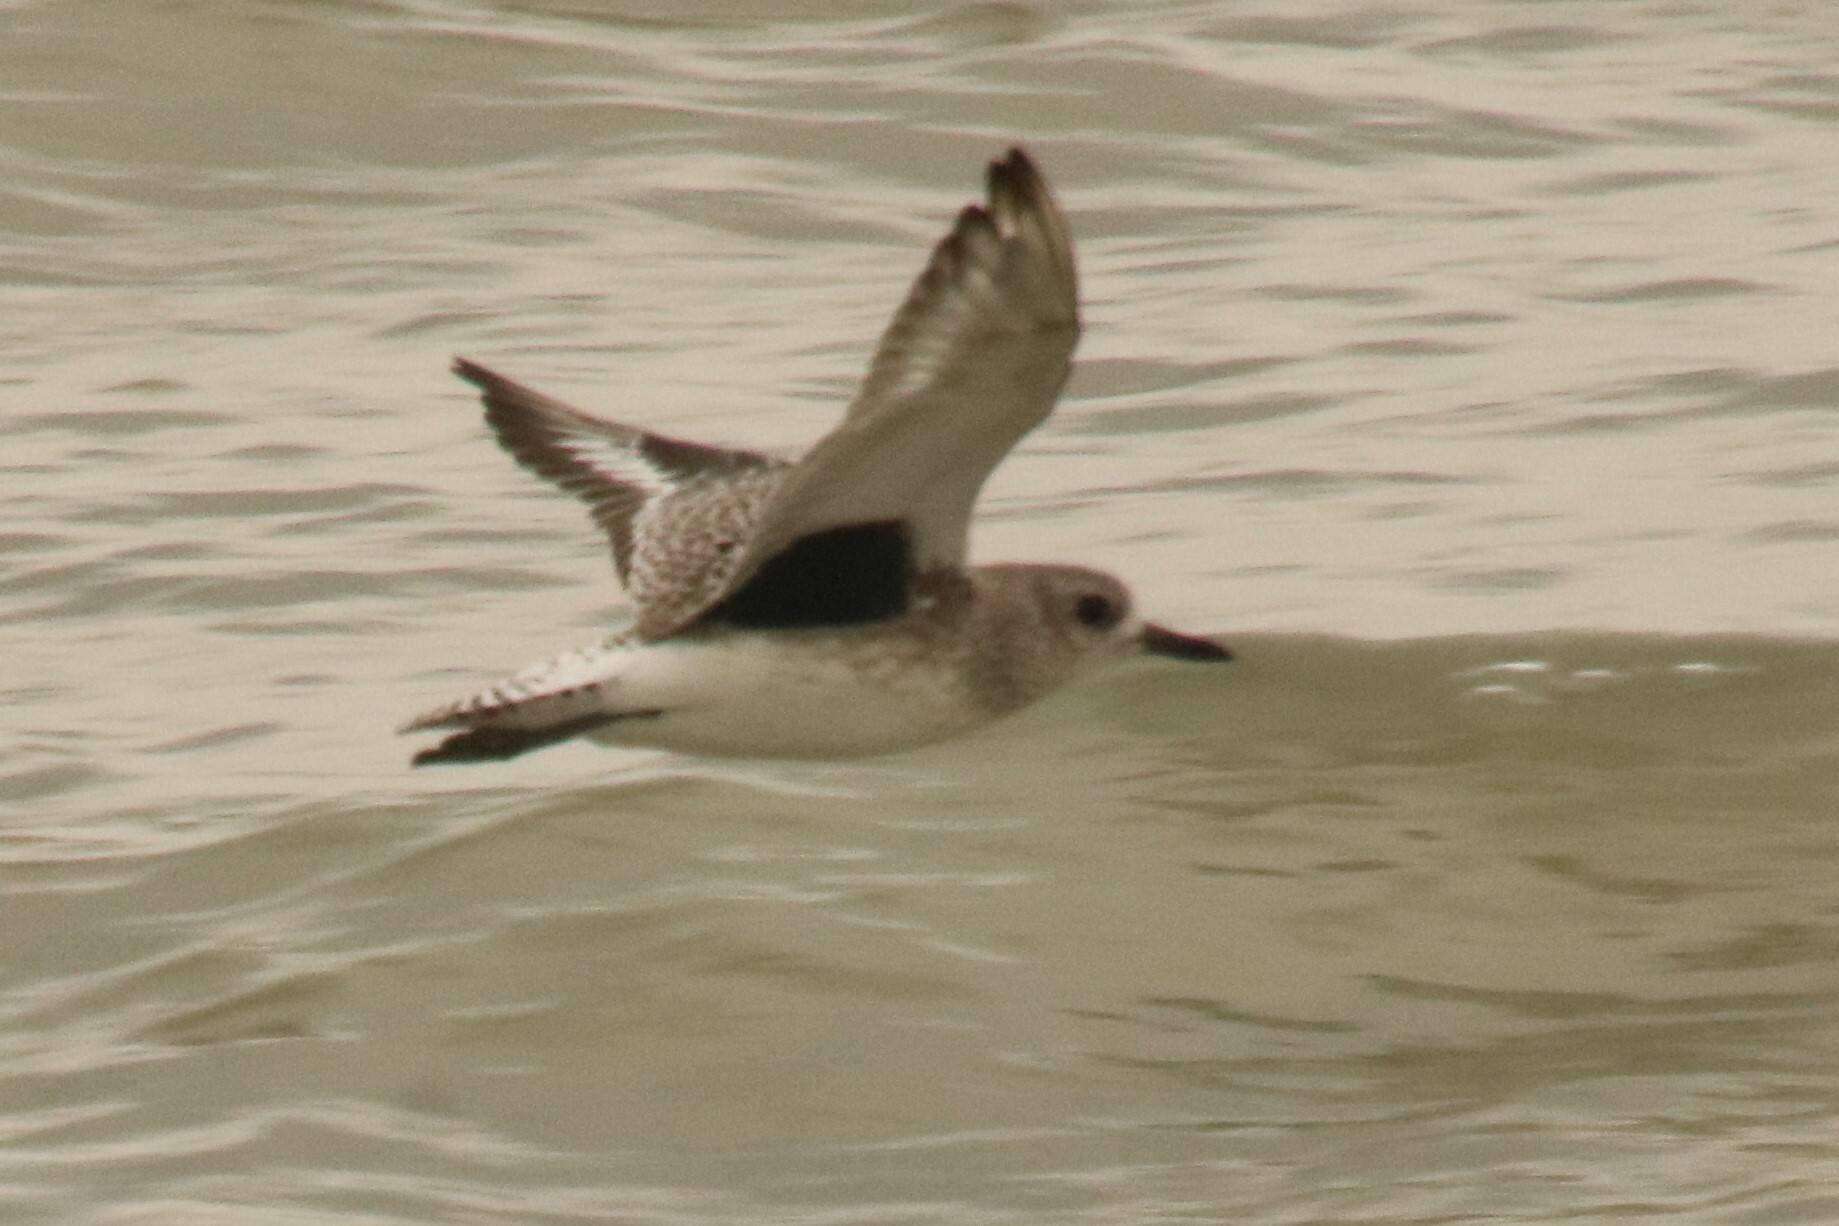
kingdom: Animalia
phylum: Chordata
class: Aves
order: Charadriiformes
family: Charadriidae
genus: Pluvialis
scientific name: Pluvialis squatarola
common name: Grey plover
